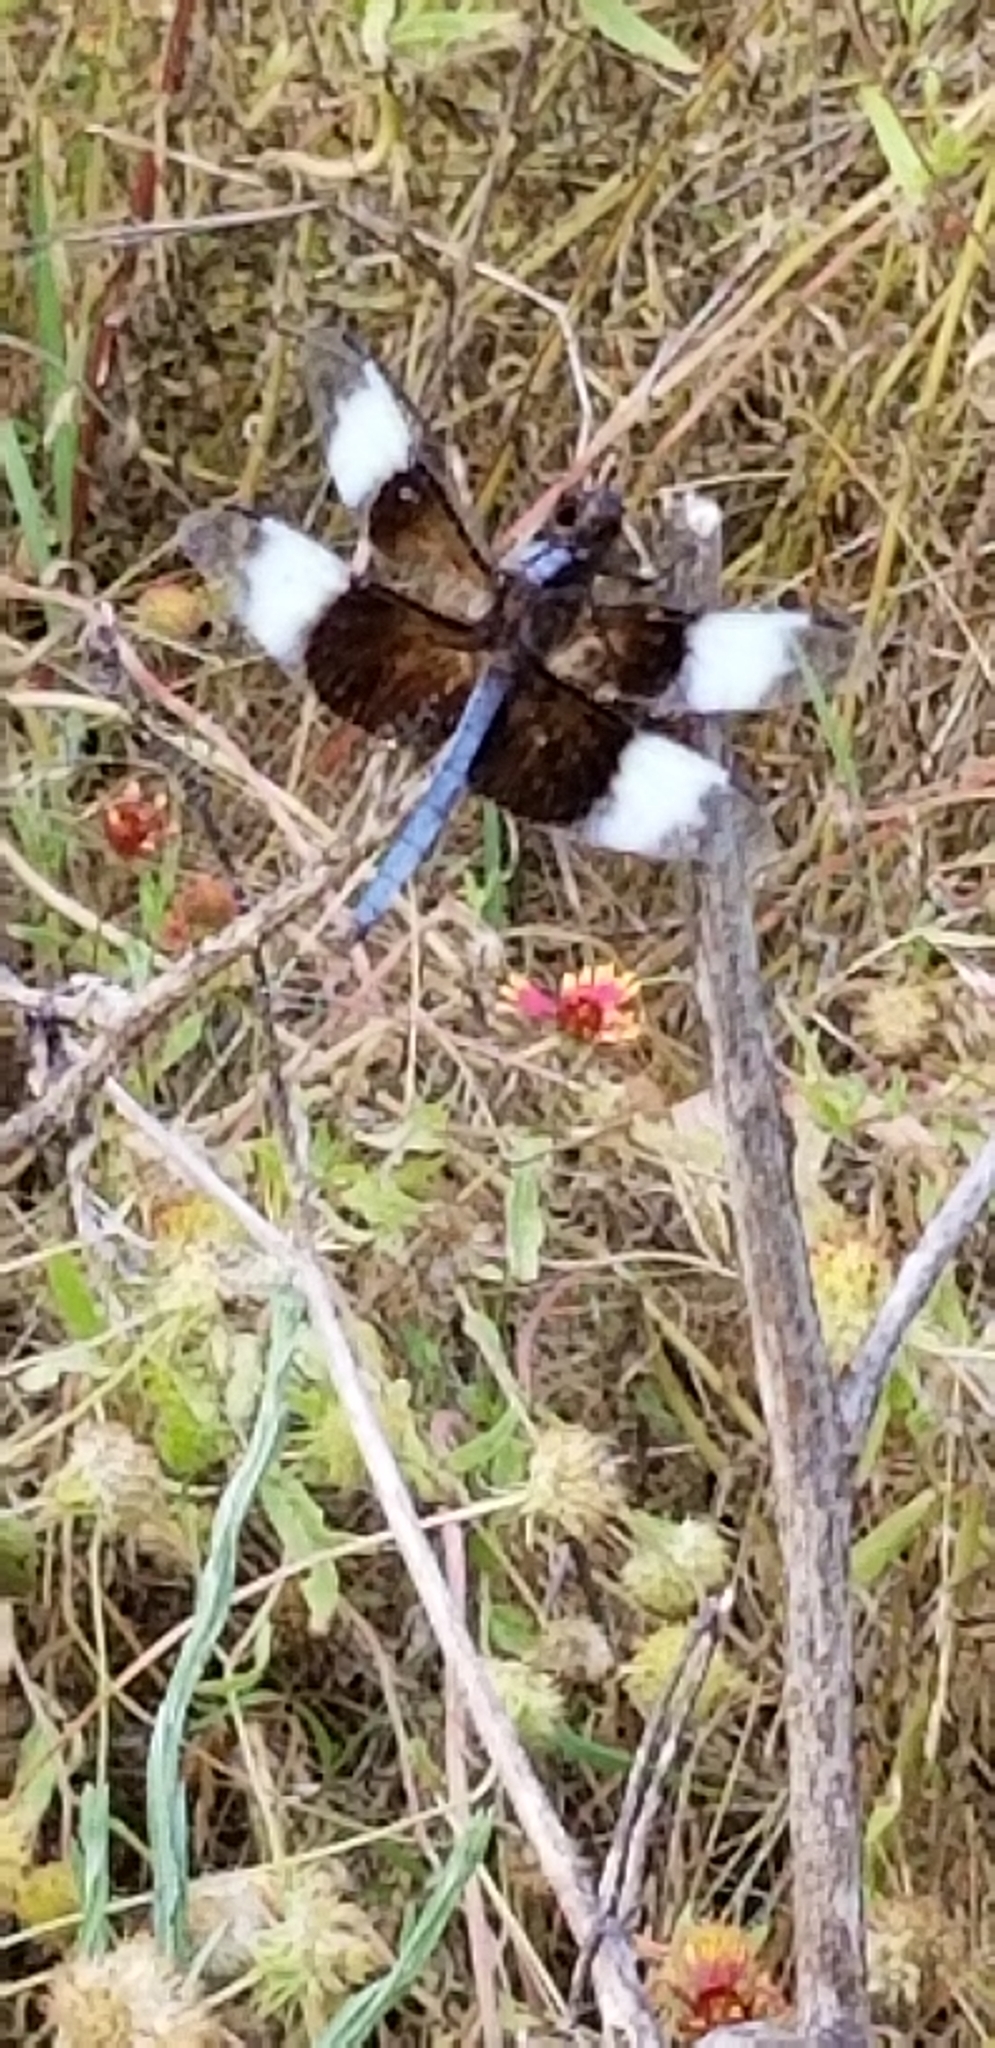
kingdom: Animalia
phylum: Arthropoda
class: Insecta
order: Odonata
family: Libellulidae
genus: Libellula
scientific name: Libellula luctuosa
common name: Widow skimmer
